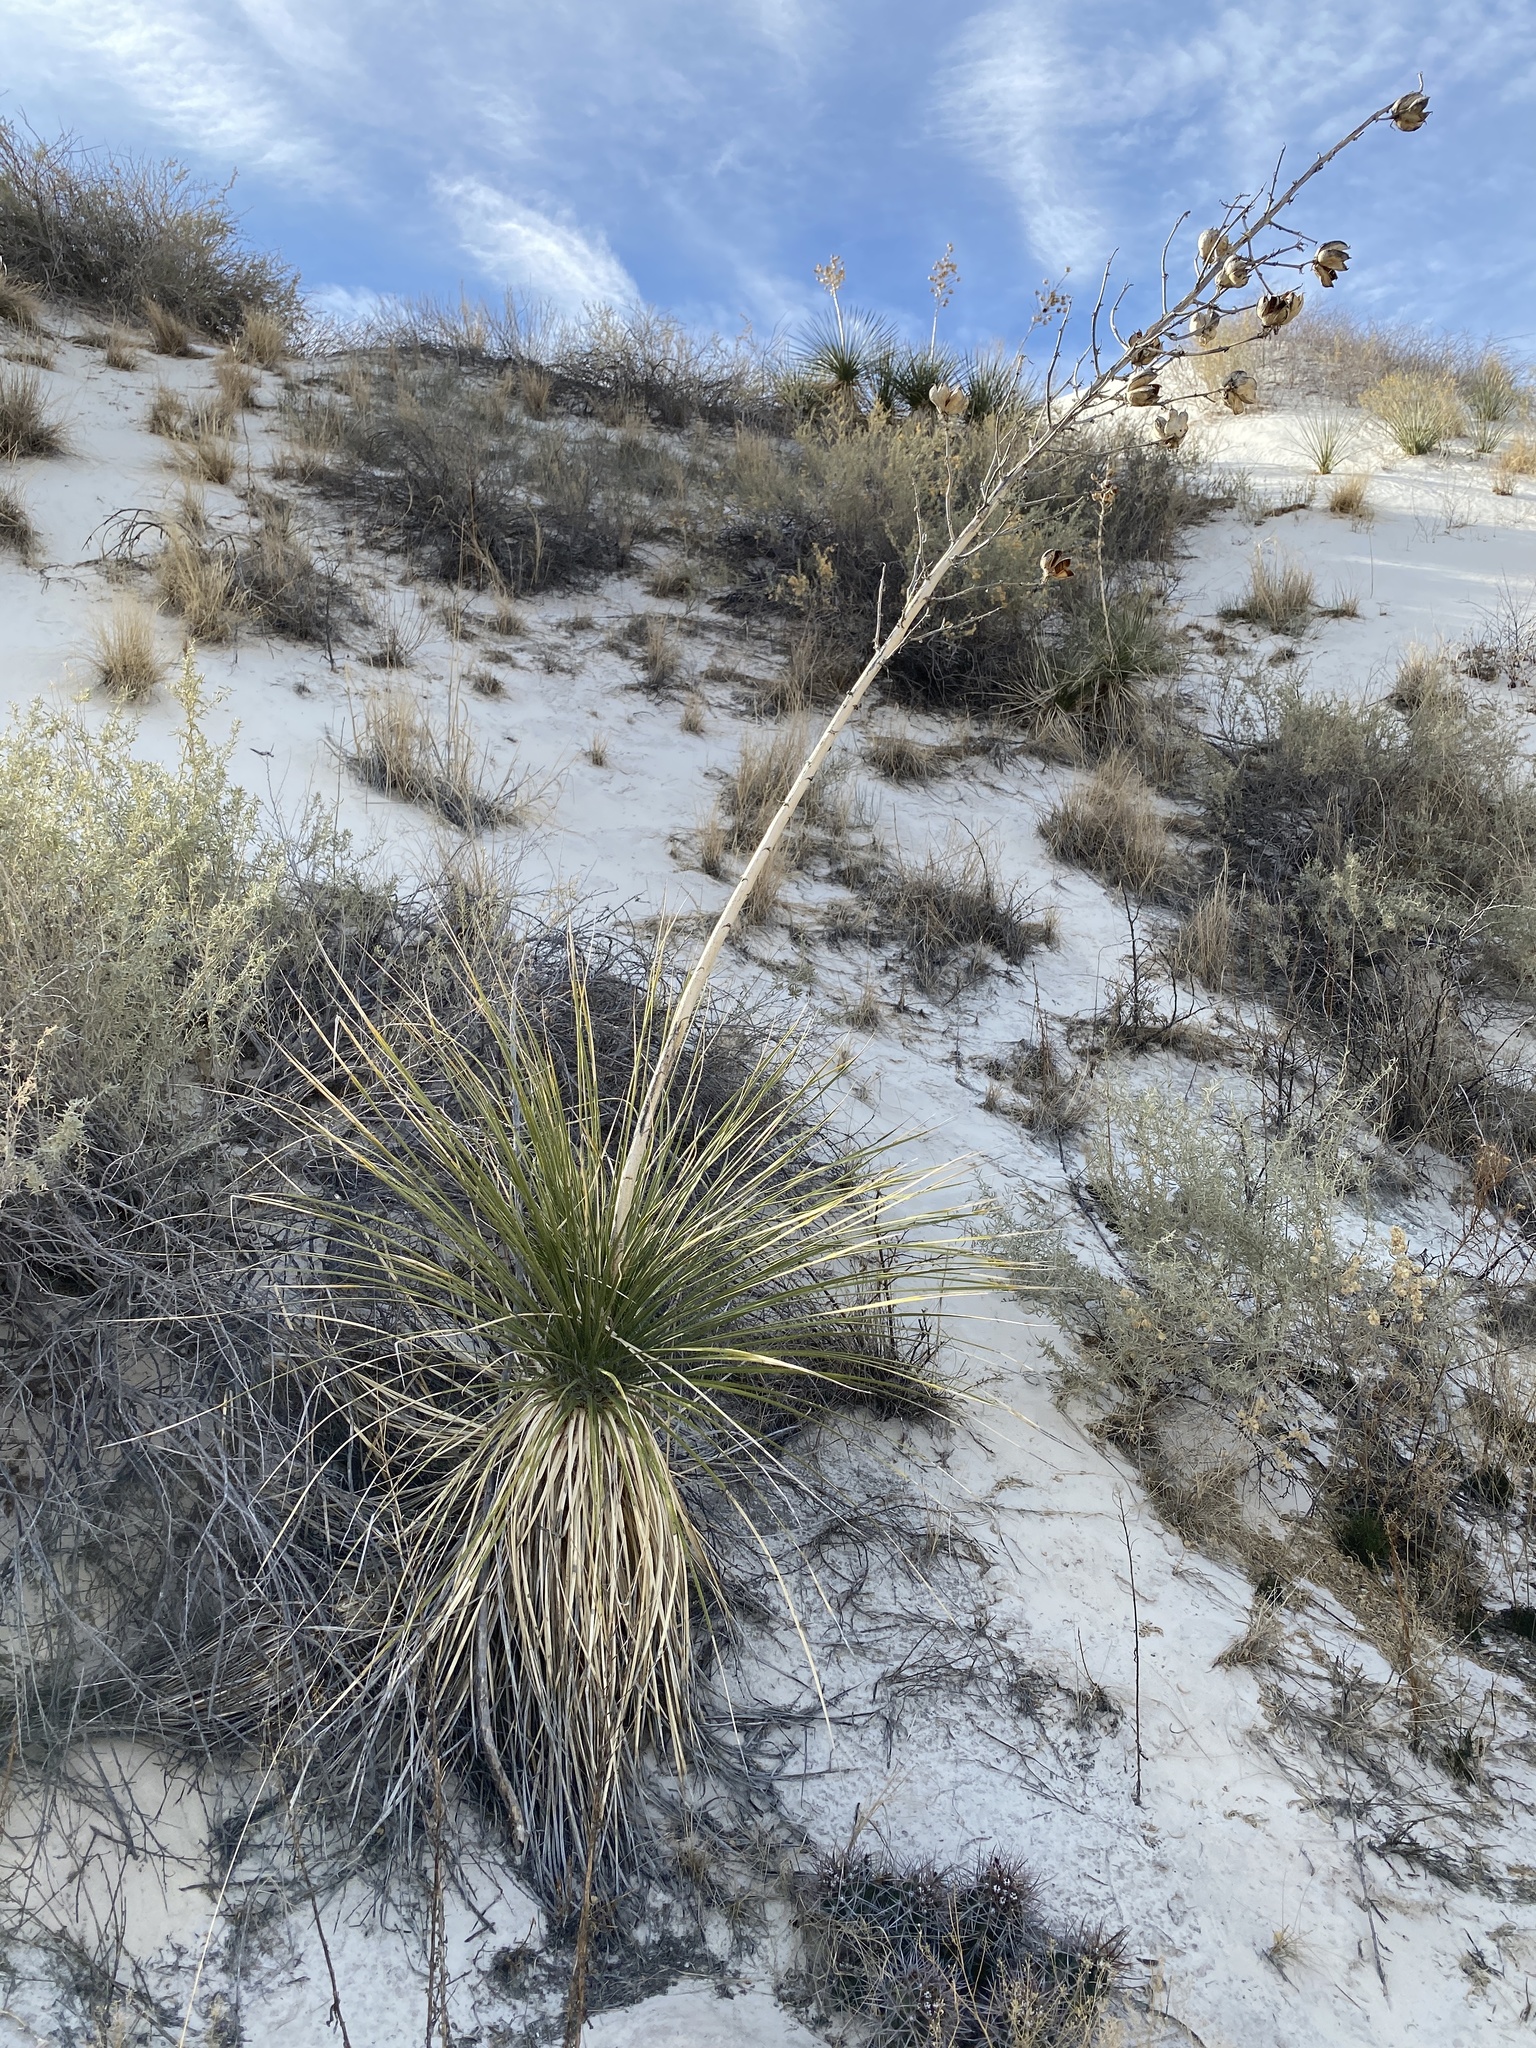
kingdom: Plantae
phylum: Tracheophyta
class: Liliopsida
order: Asparagales
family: Asparagaceae
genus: Yucca
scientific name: Yucca elata
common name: Palmella
